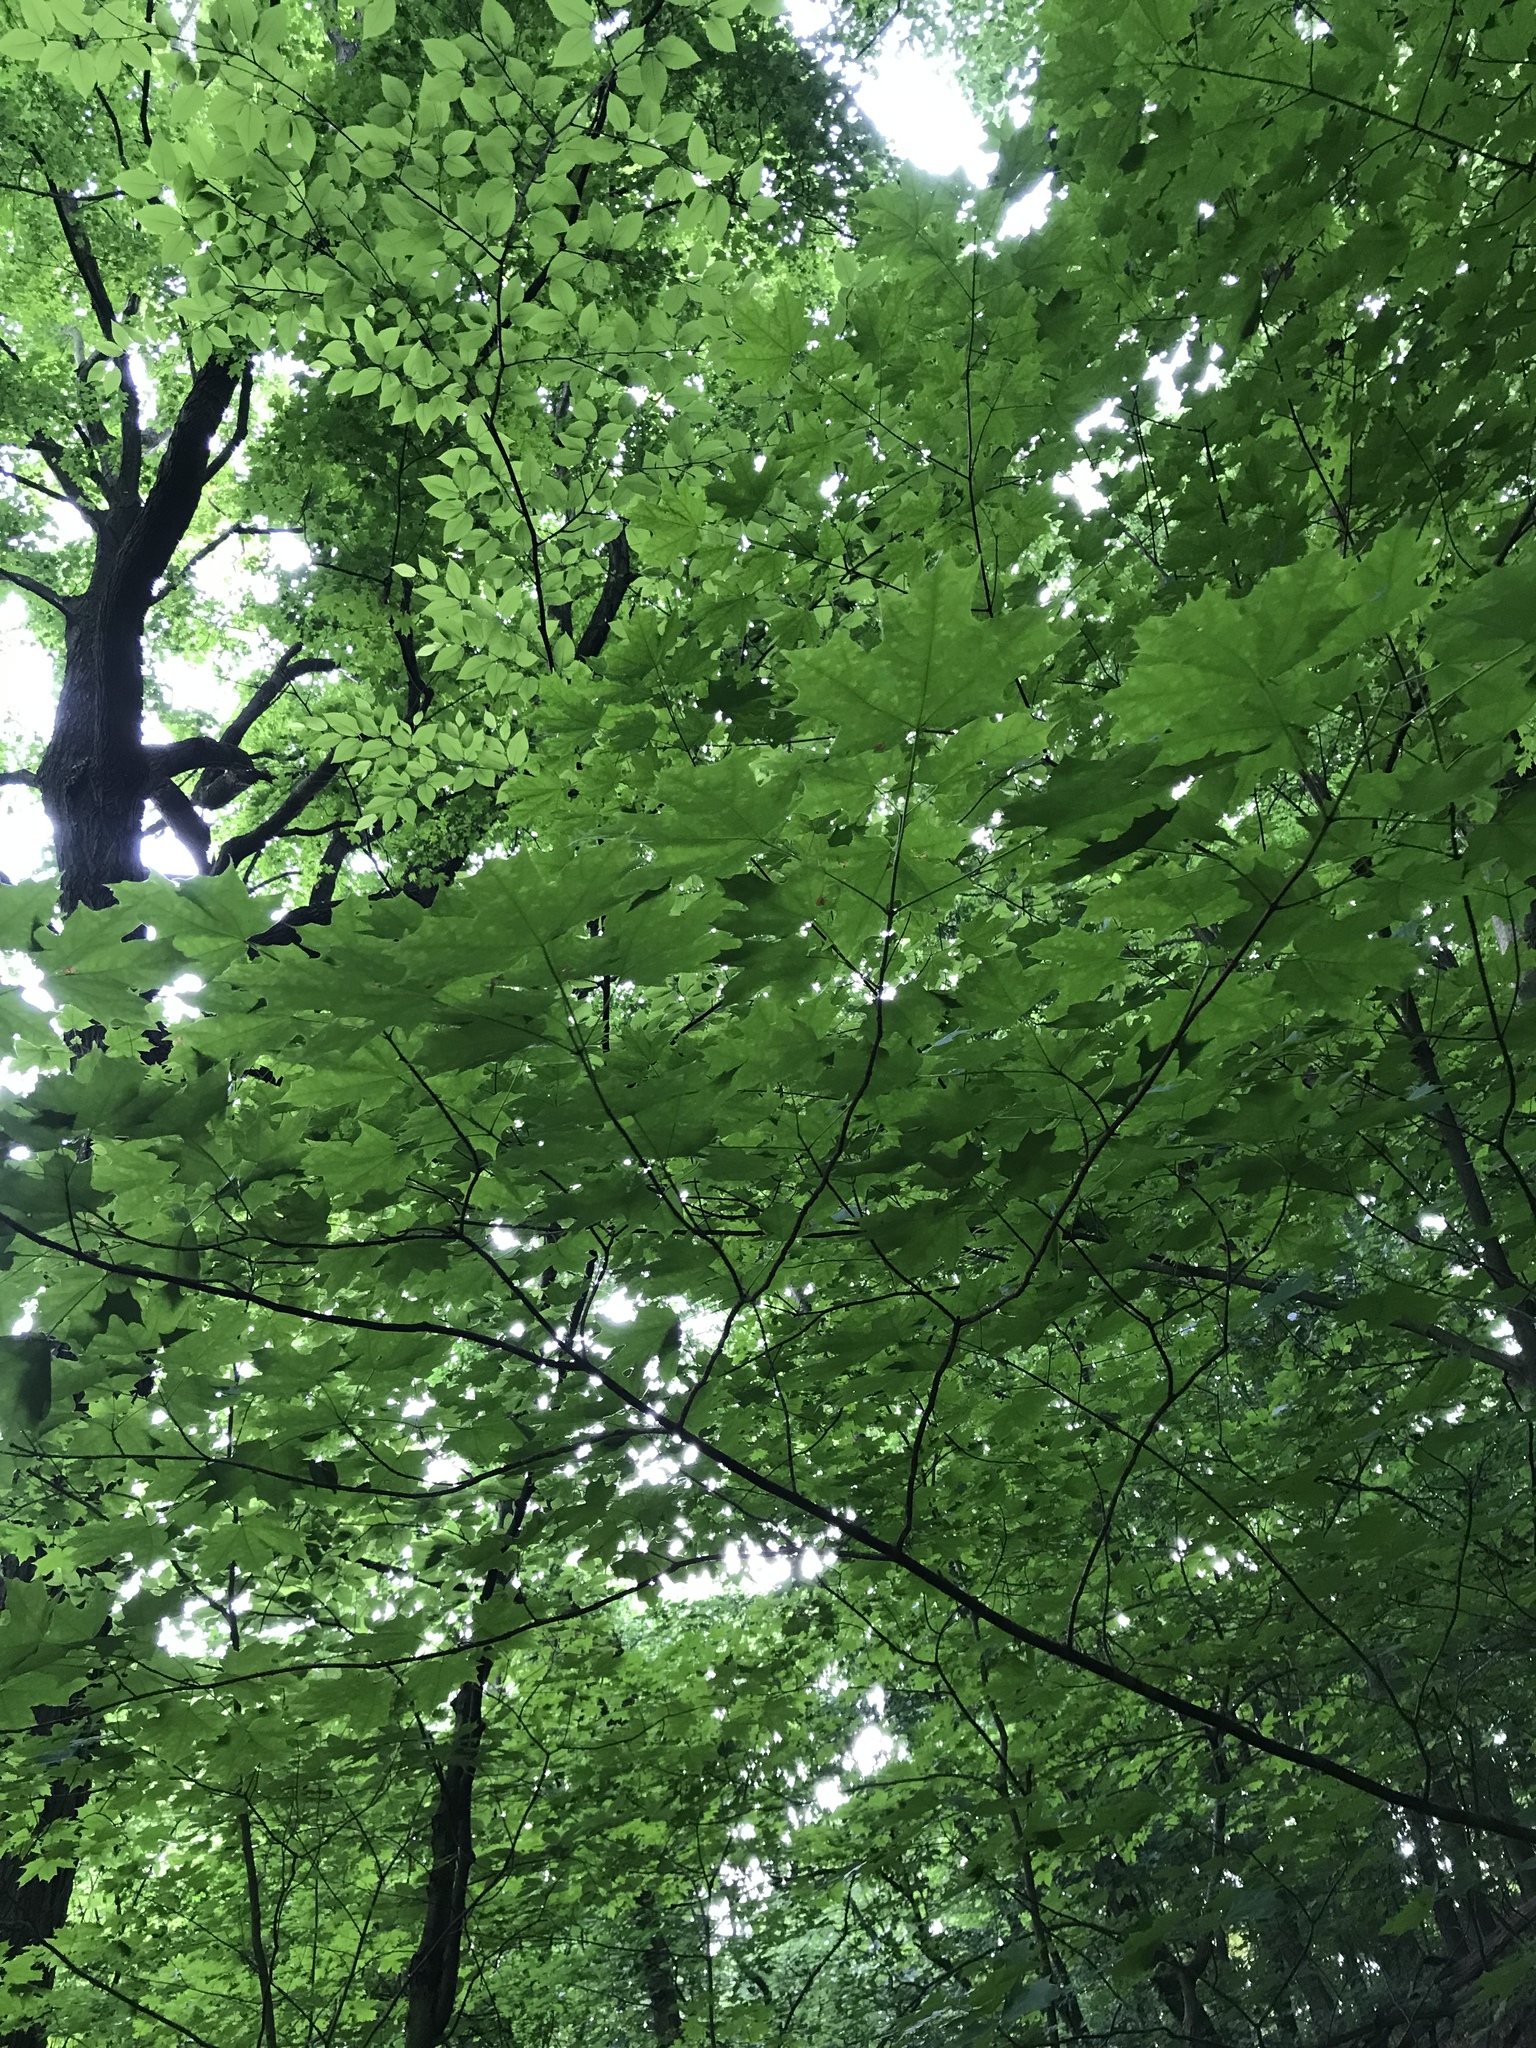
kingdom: Plantae
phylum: Tracheophyta
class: Magnoliopsida
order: Sapindales
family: Sapindaceae
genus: Acer
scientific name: Acer saccharum
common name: Sugar maple
